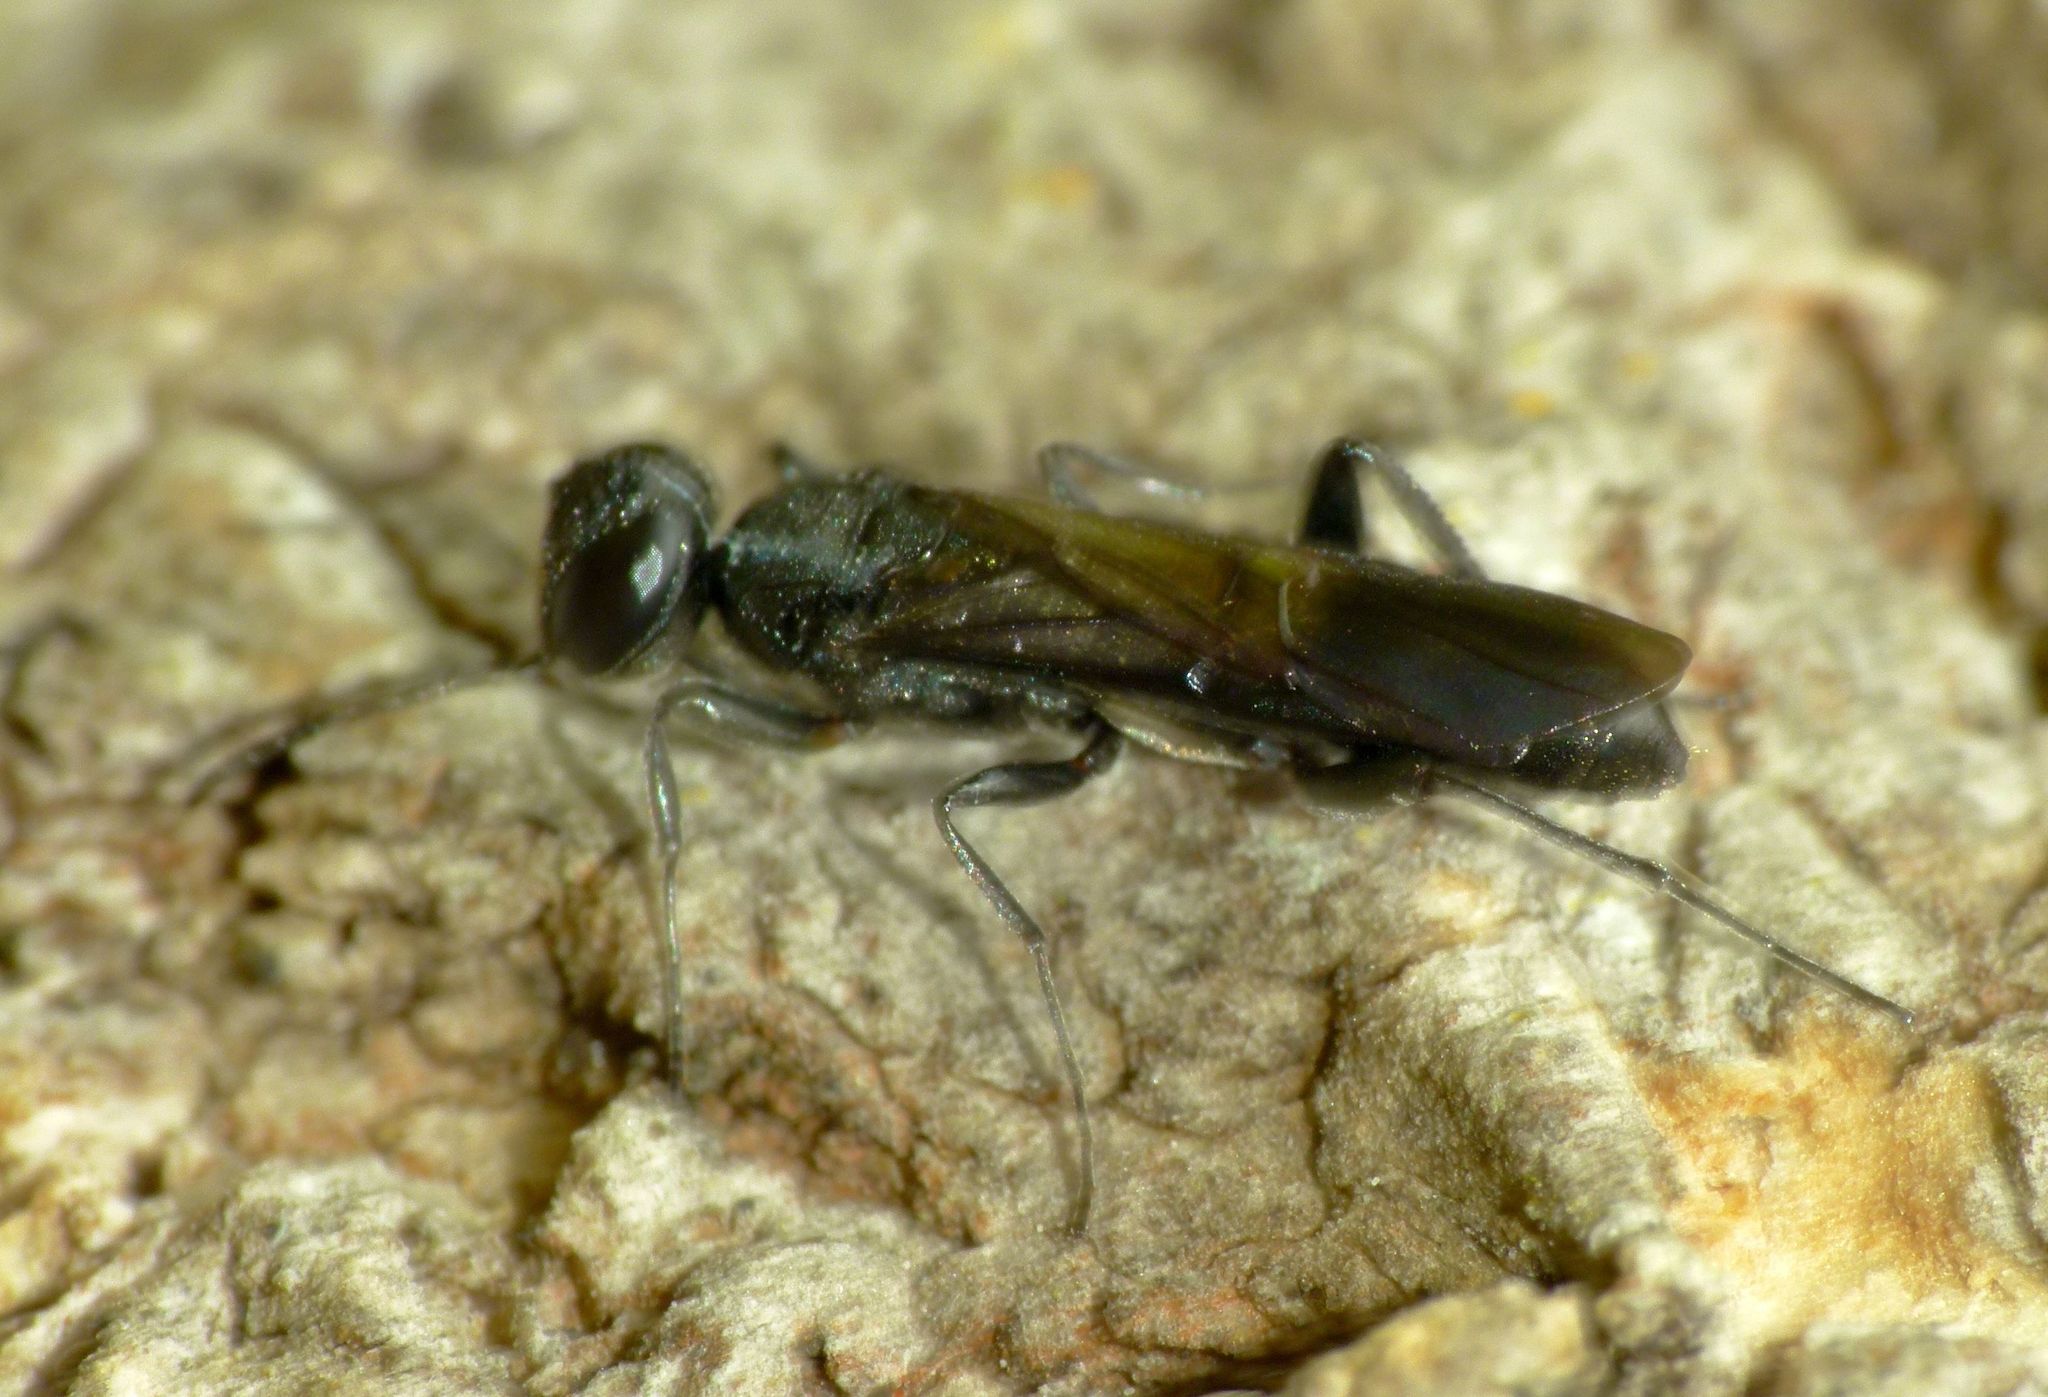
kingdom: Animalia
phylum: Arthropoda
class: Insecta
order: Hymenoptera
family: Orussidae
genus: Guiglia
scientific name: Guiglia schauinslandi
